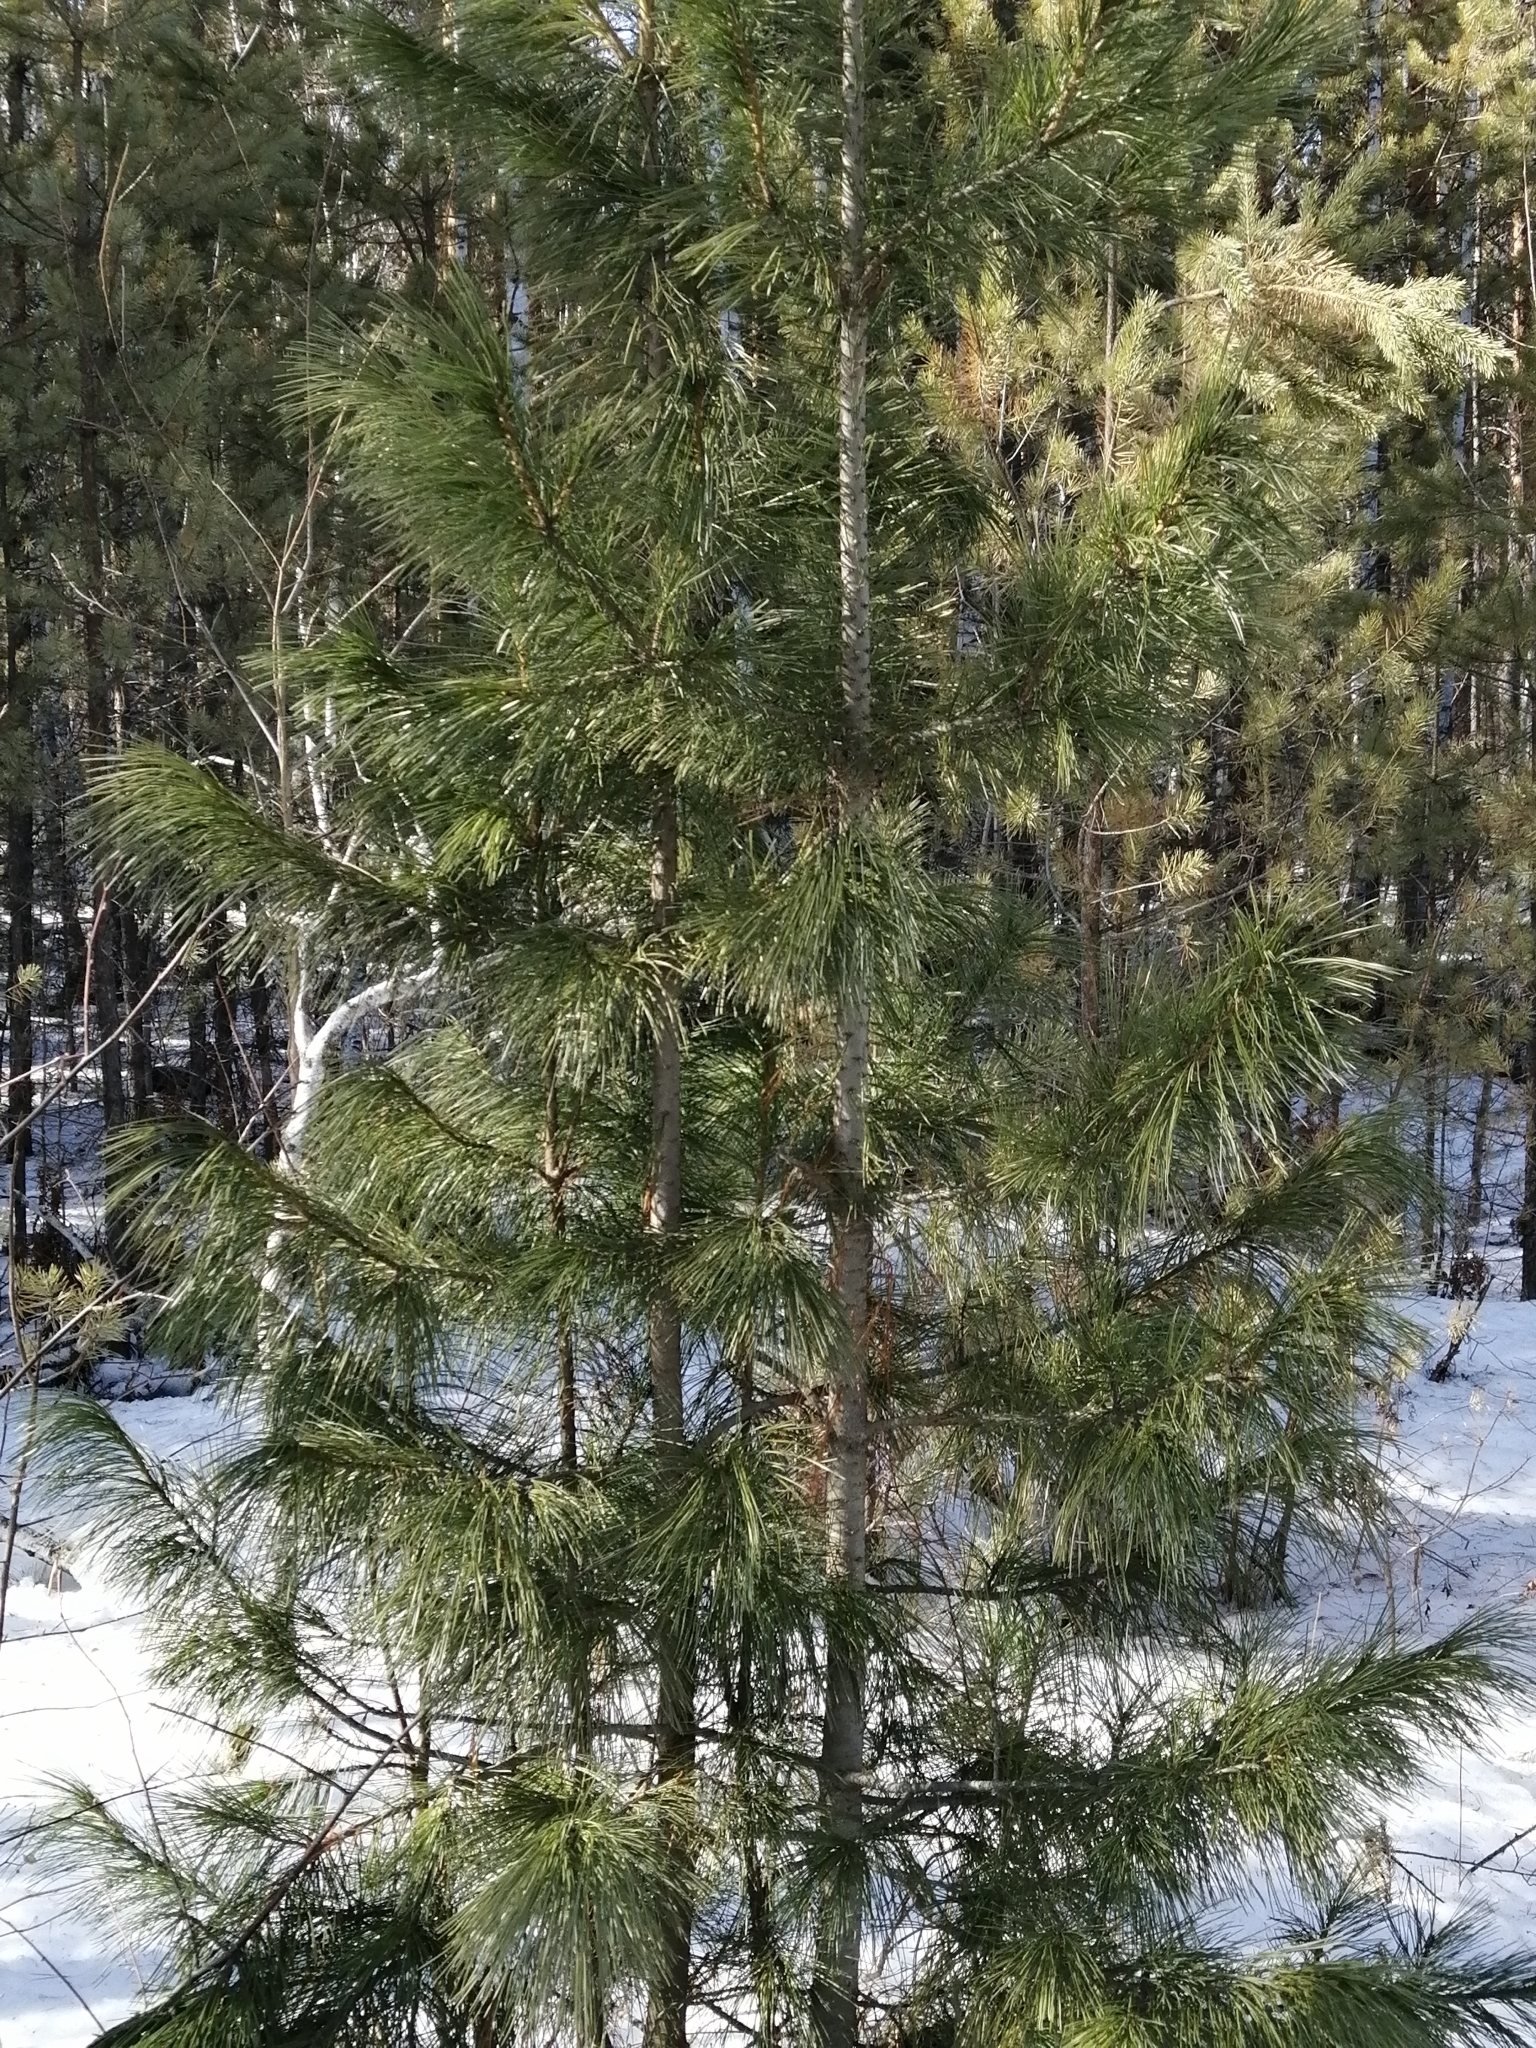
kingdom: Plantae
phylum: Tracheophyta
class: Pinopsida
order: Pinales
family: Pinaceae
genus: Pinus
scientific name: Pinus sibirica
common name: Siberian pine
